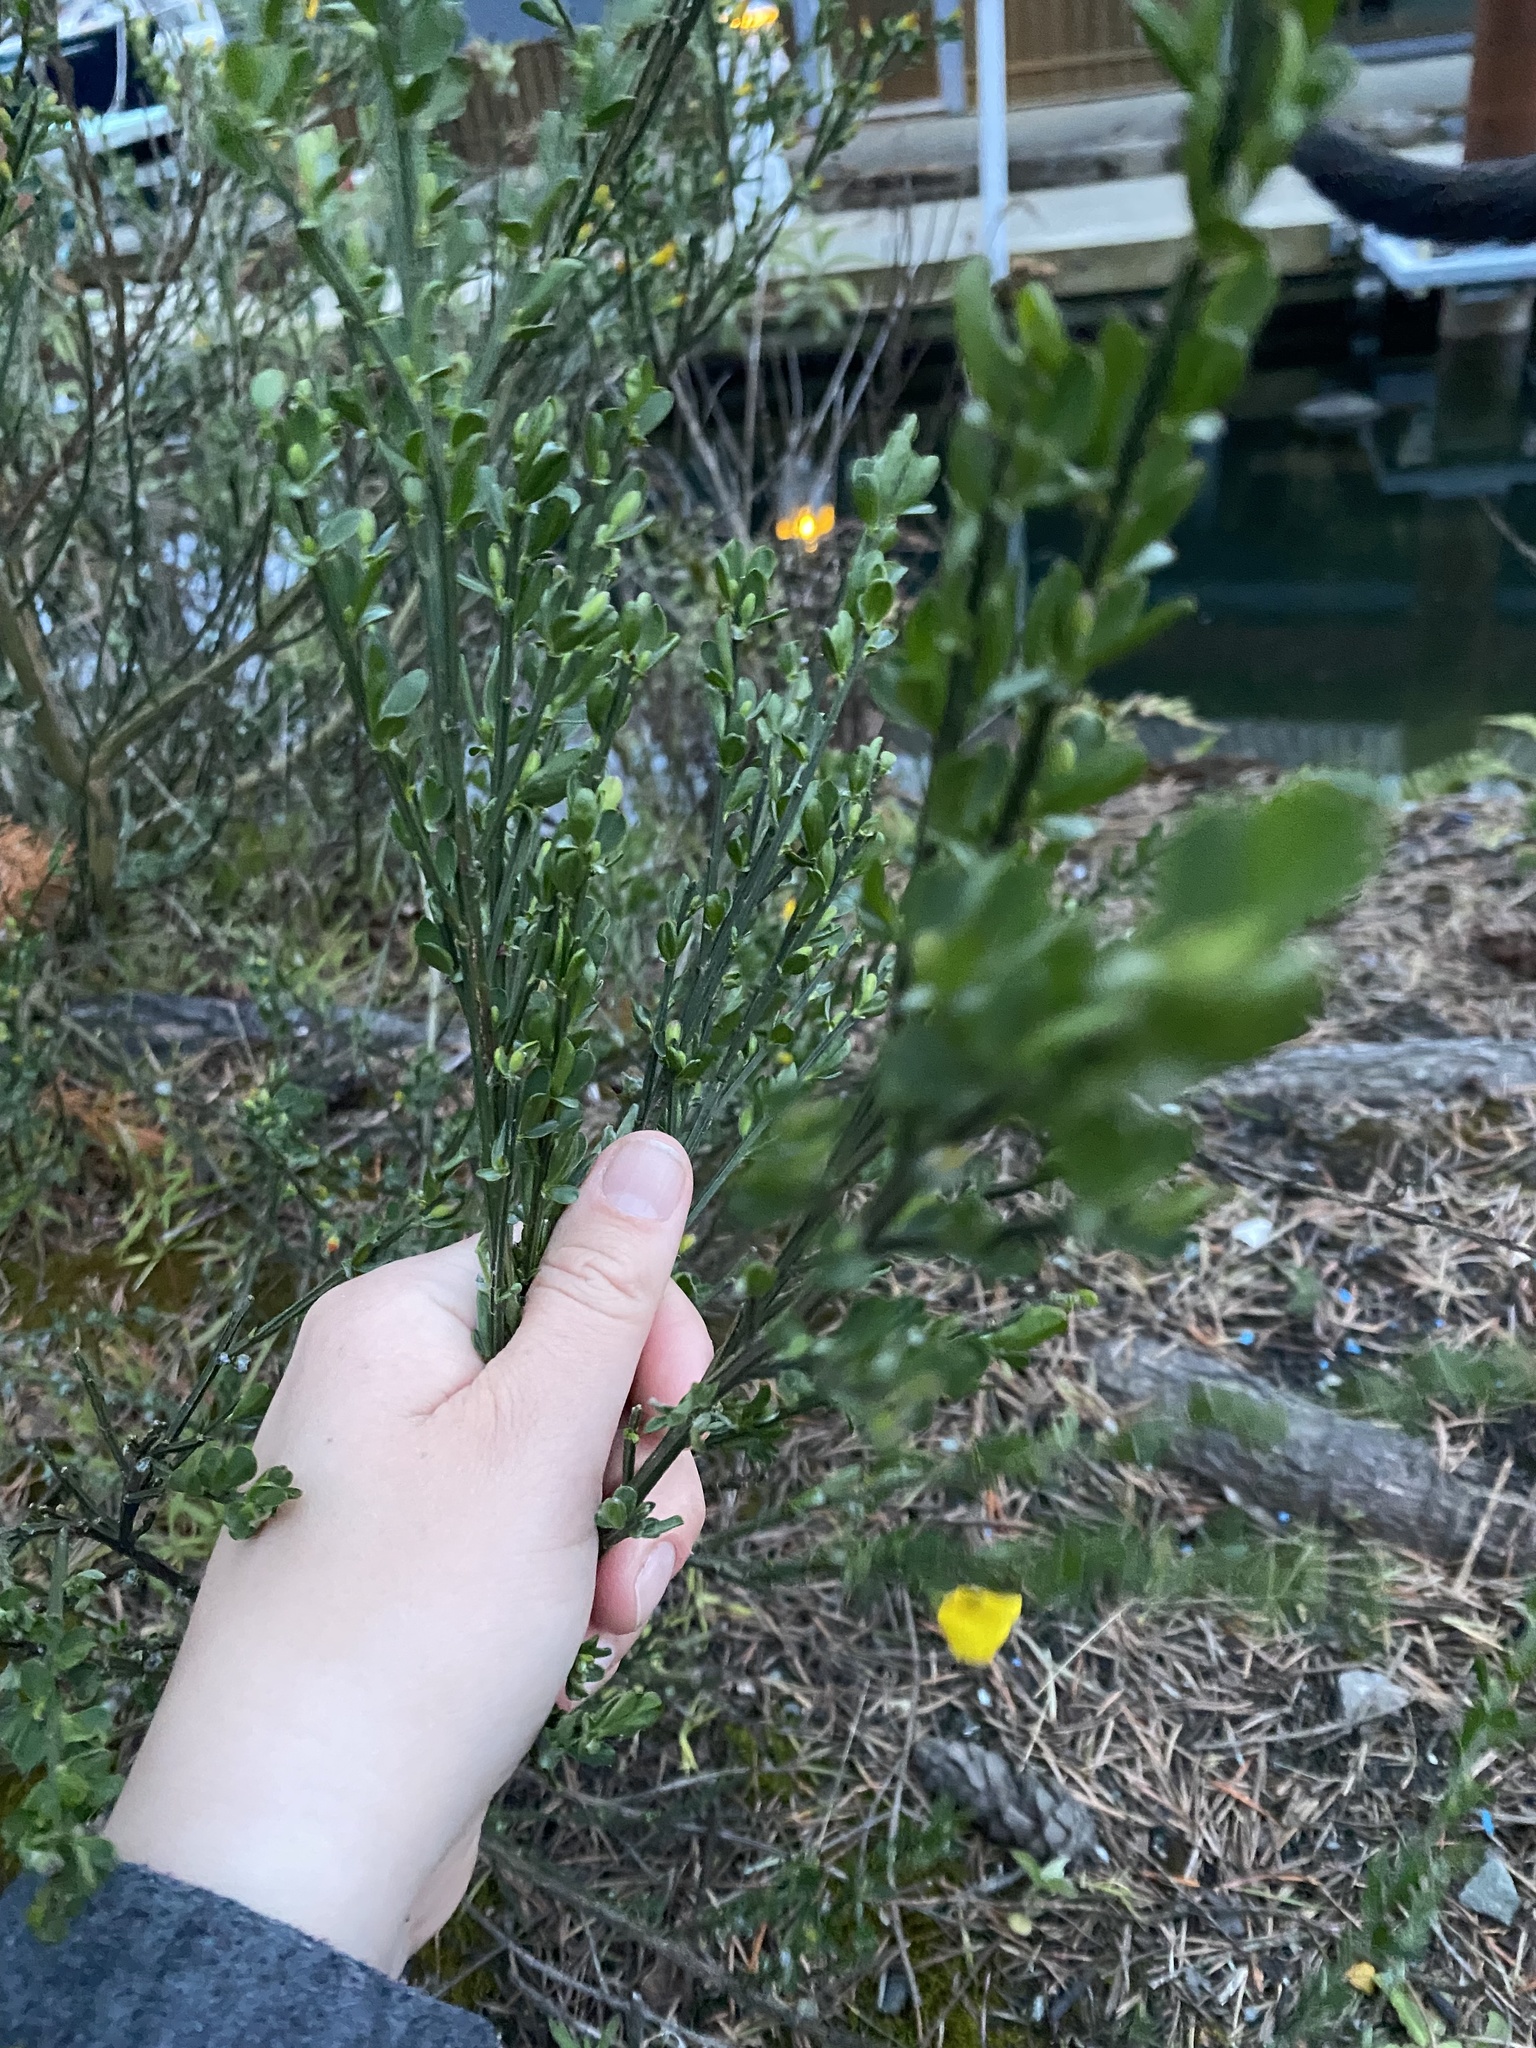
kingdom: Plantae
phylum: Tracheophyta
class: Magnoliopsida
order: Fabales
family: Fabaceae
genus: Cytisus
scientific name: Cytisus scoparius
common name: Scotch broom
